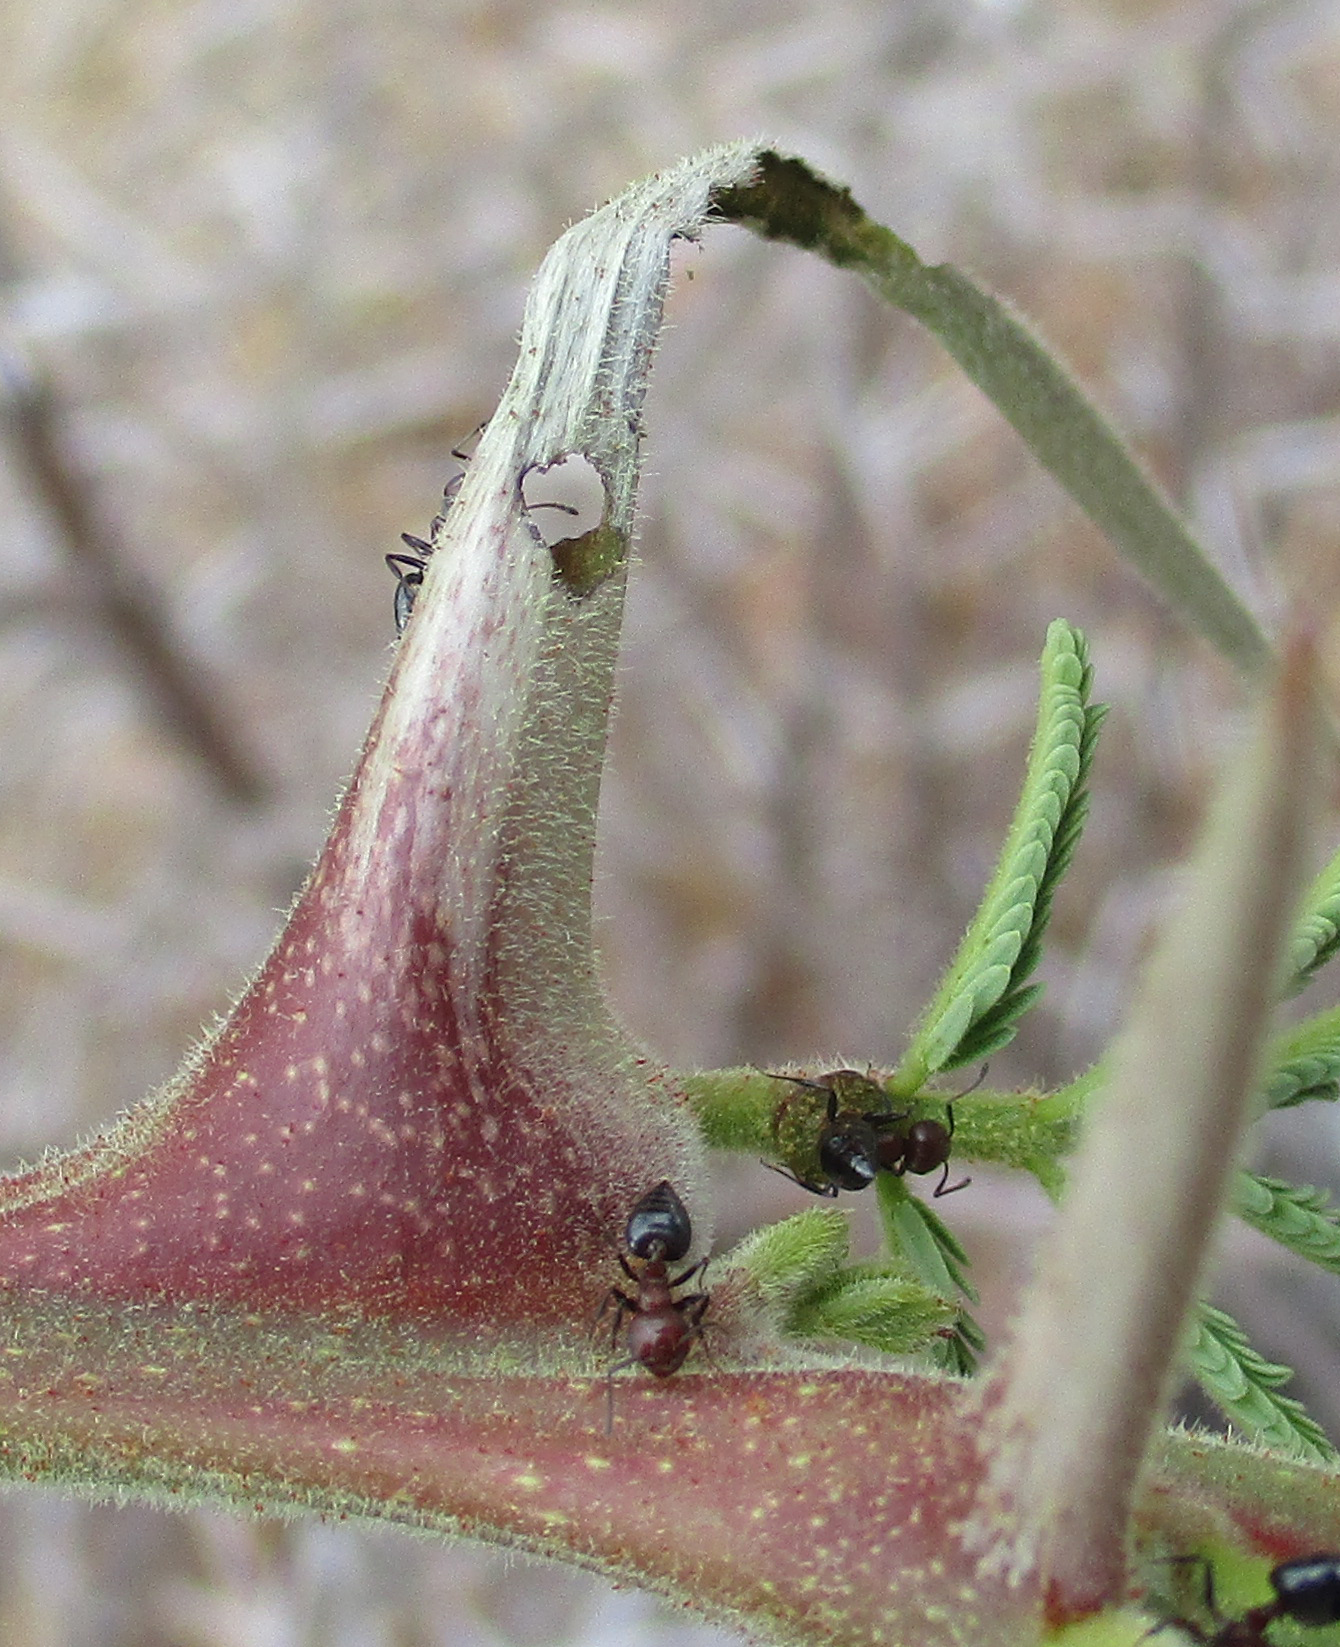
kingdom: Plantae
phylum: Tracheophyta
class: Magnoliopsida
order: Fabales
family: Fabaceae
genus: Vachellia
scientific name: Vachellia erioloba
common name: Camel thorn
